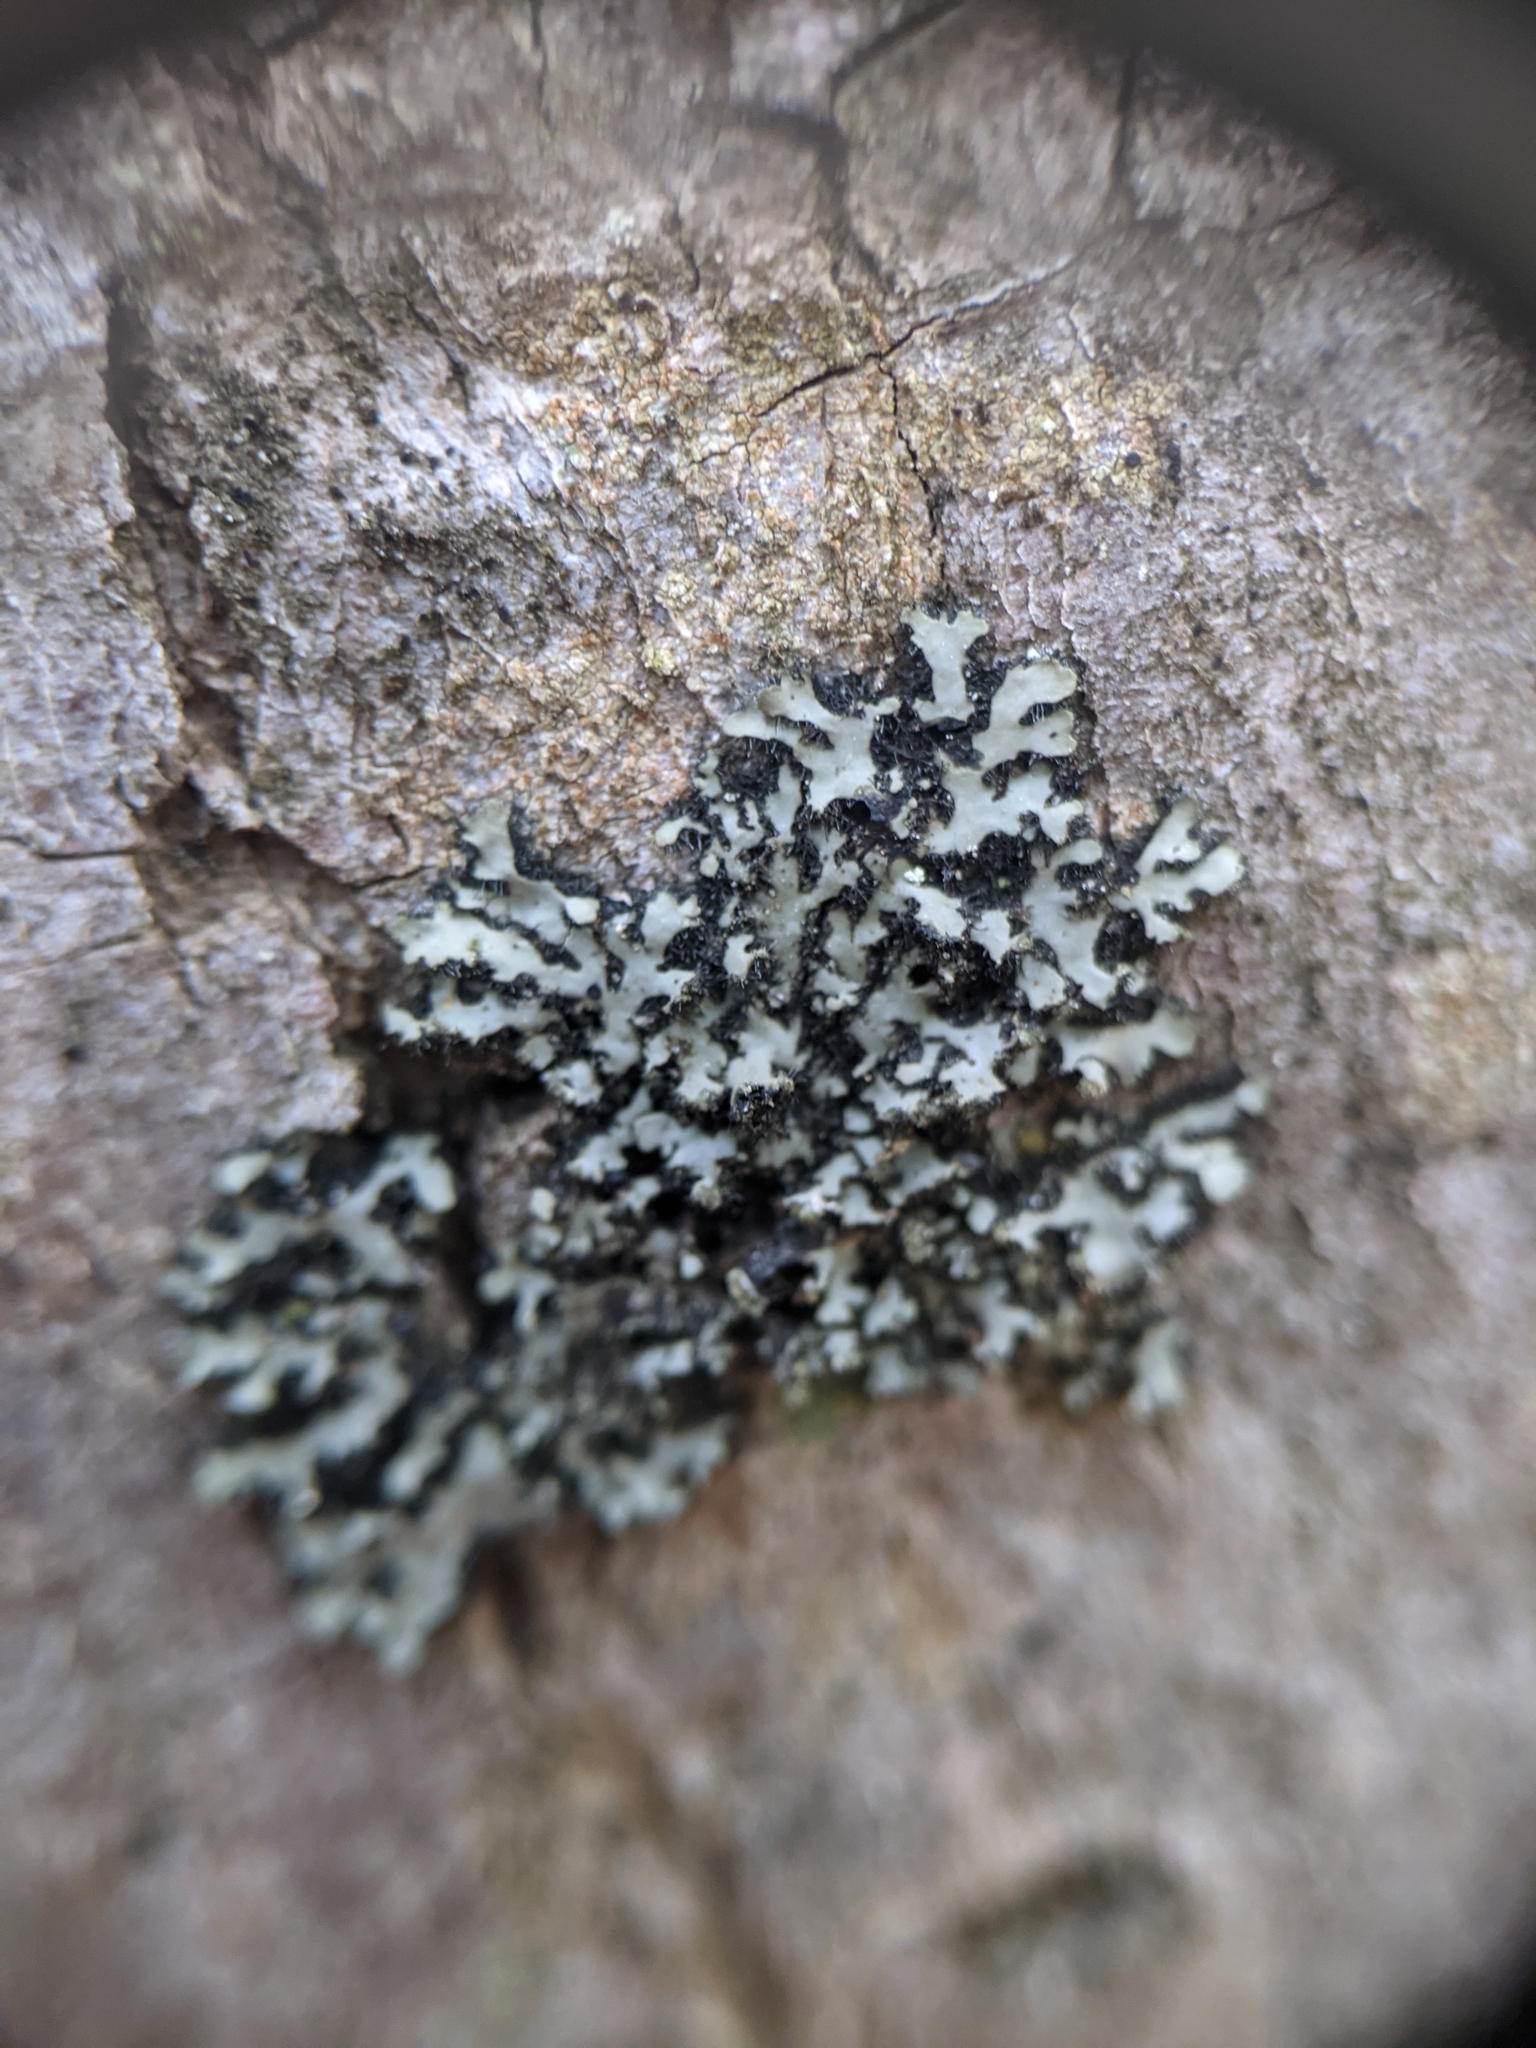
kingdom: Fungi
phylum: Ascomycota
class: Lecanoromycetes
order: Caliciales
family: Physciaceae
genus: Phaeophyscia
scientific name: Phaeophyscia rubropulchra
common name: Orange-cored shadow lichen
